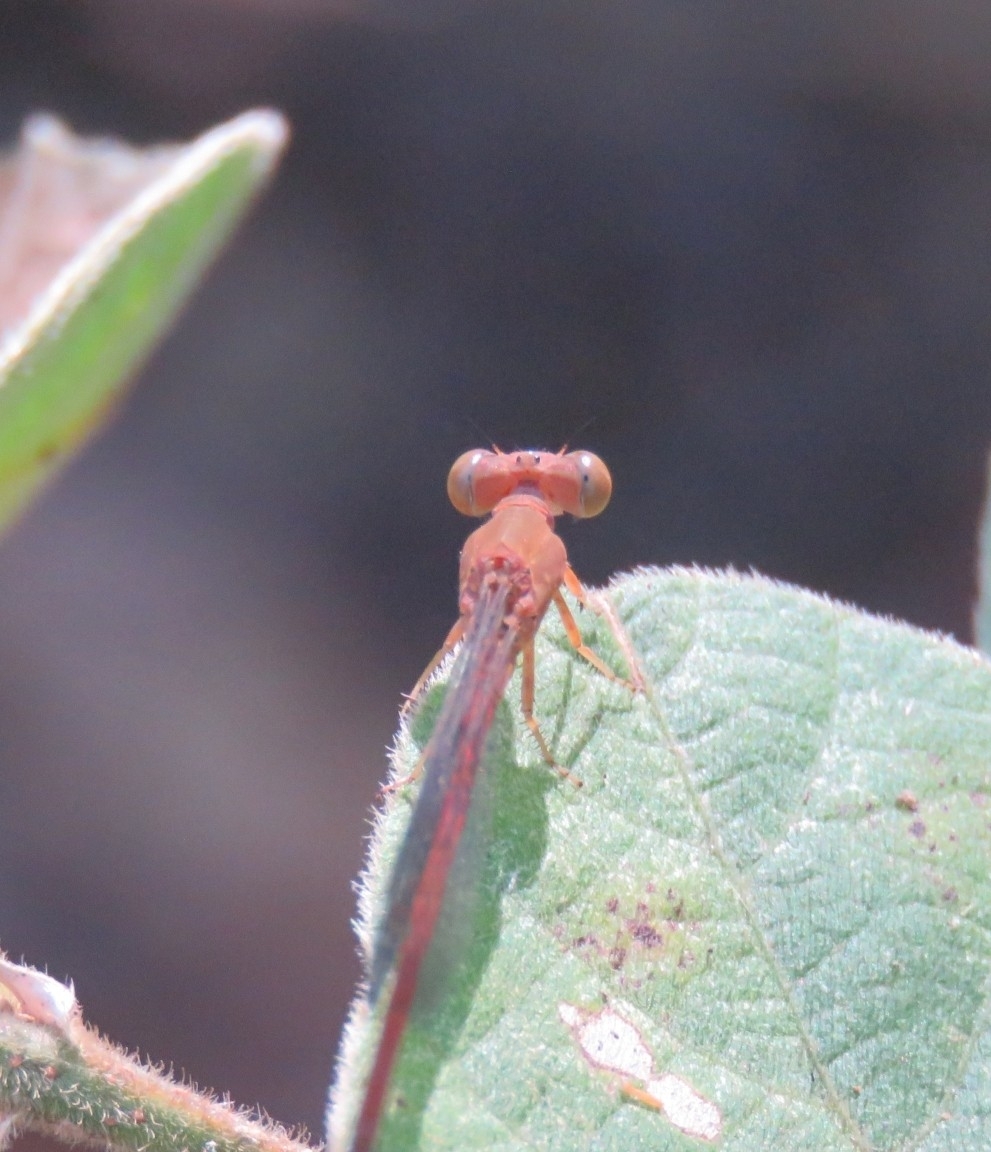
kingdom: Animalia
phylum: Arthropoda
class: Insecta
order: Odonata
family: Coenagrionidae
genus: Ceriagrion
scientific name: Ceriagrion rubiae
